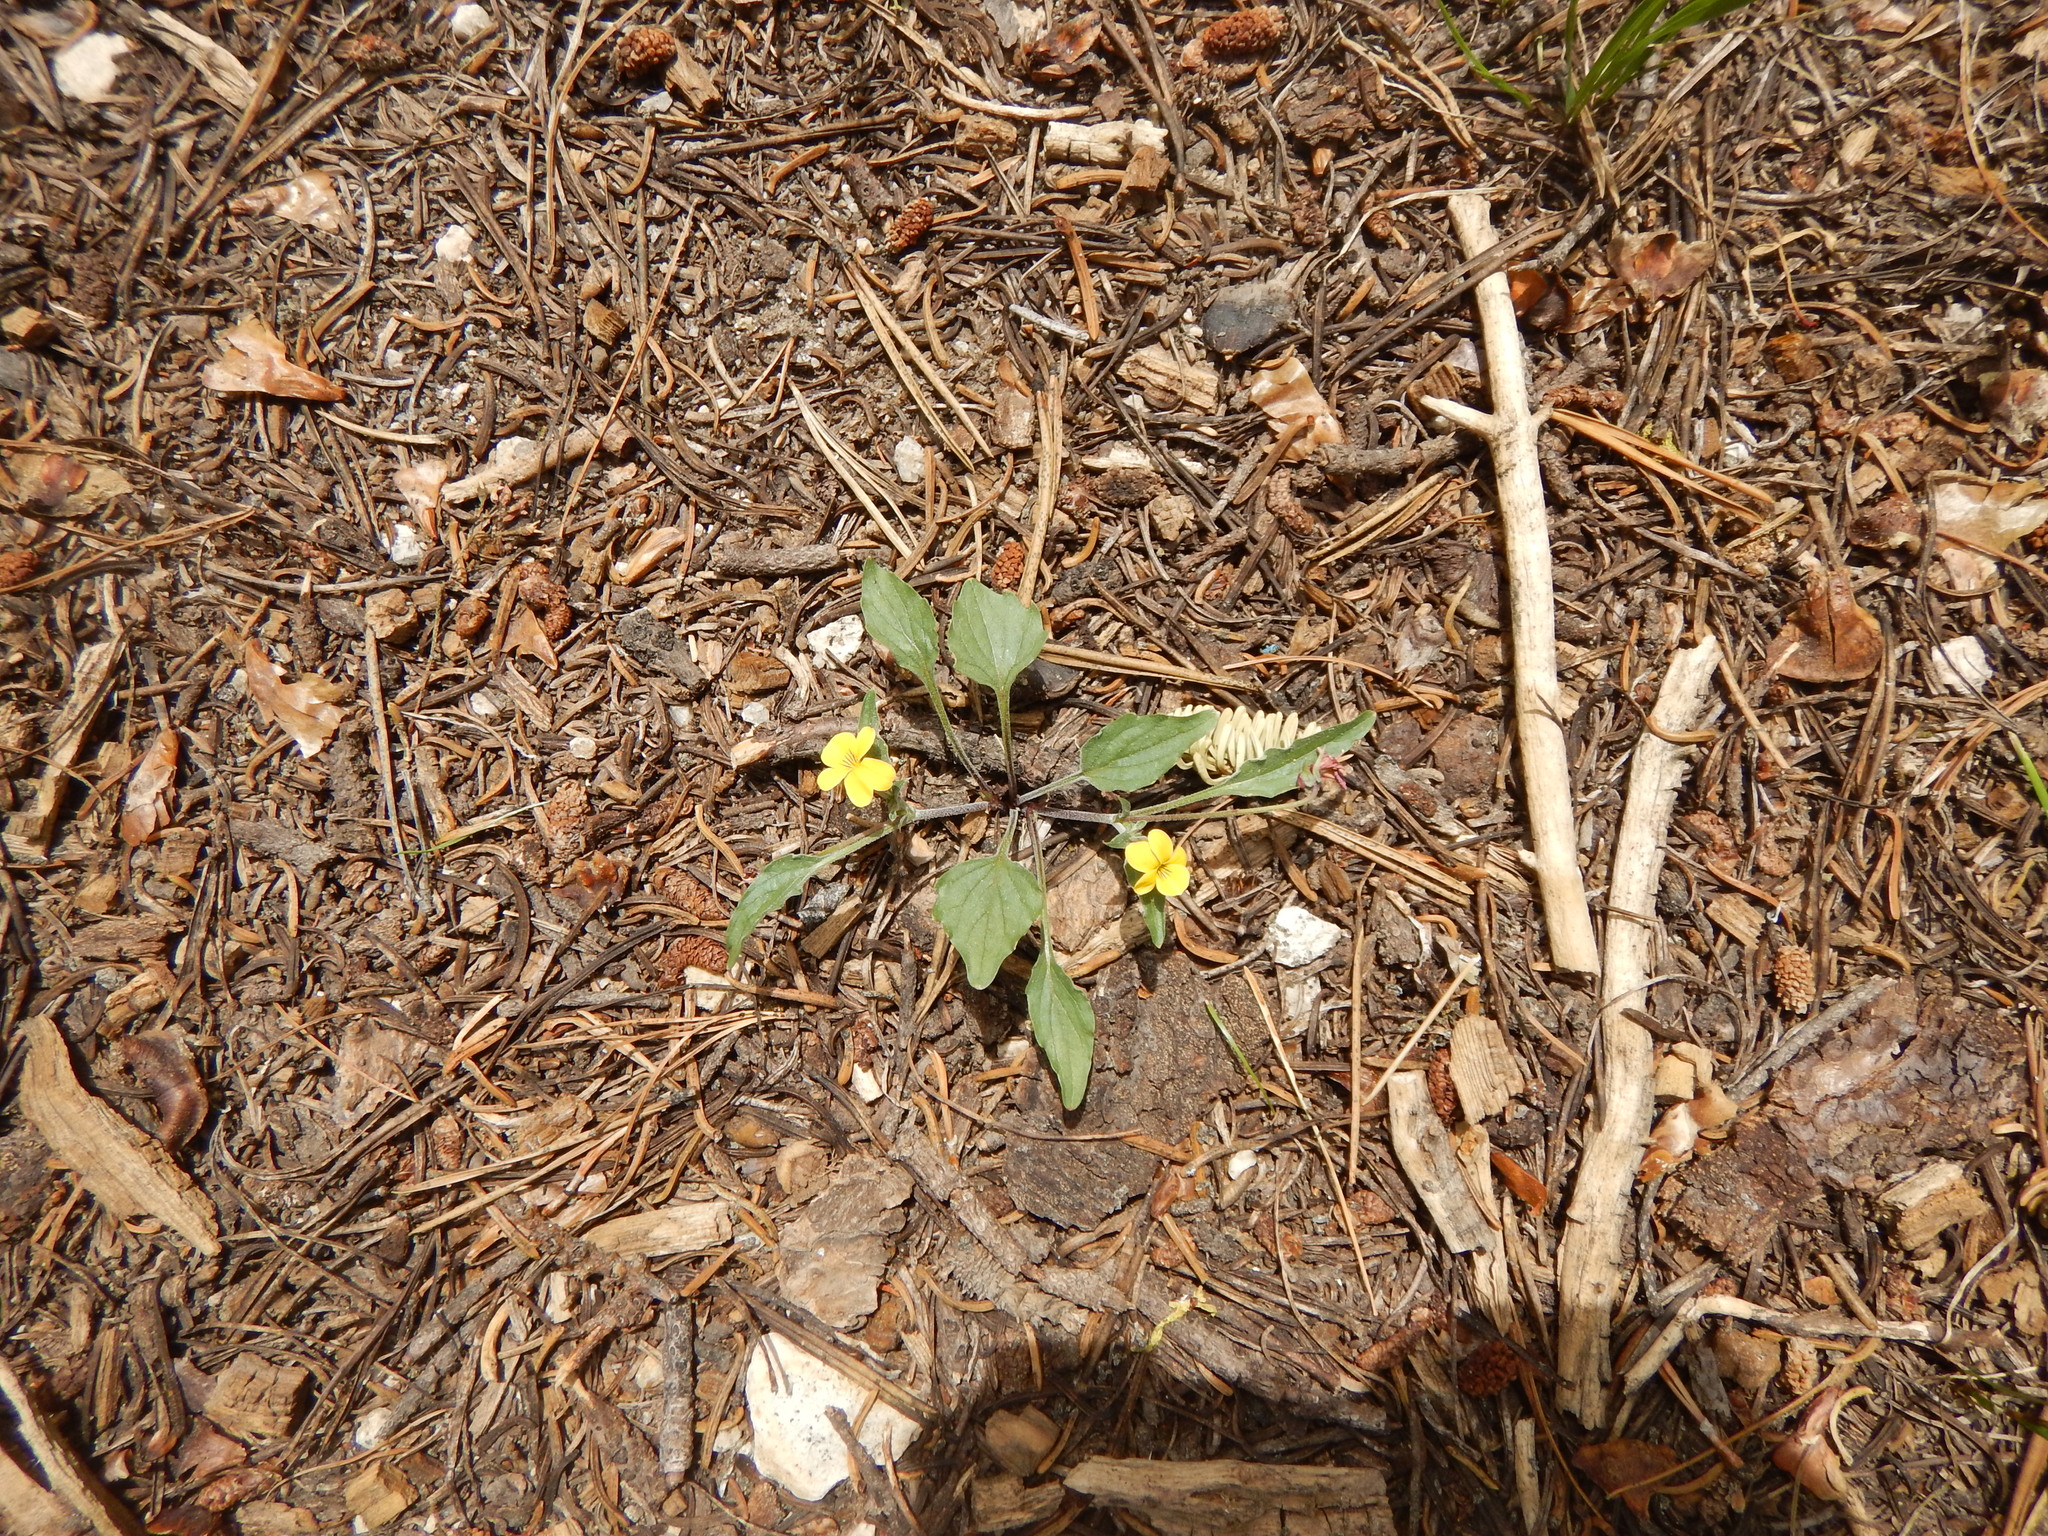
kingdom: Plantae
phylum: Tracheophyta
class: Magnoliopsida
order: Malpighiales
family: Violaceae
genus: Viola
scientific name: Viola purpurea
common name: Pine violet
